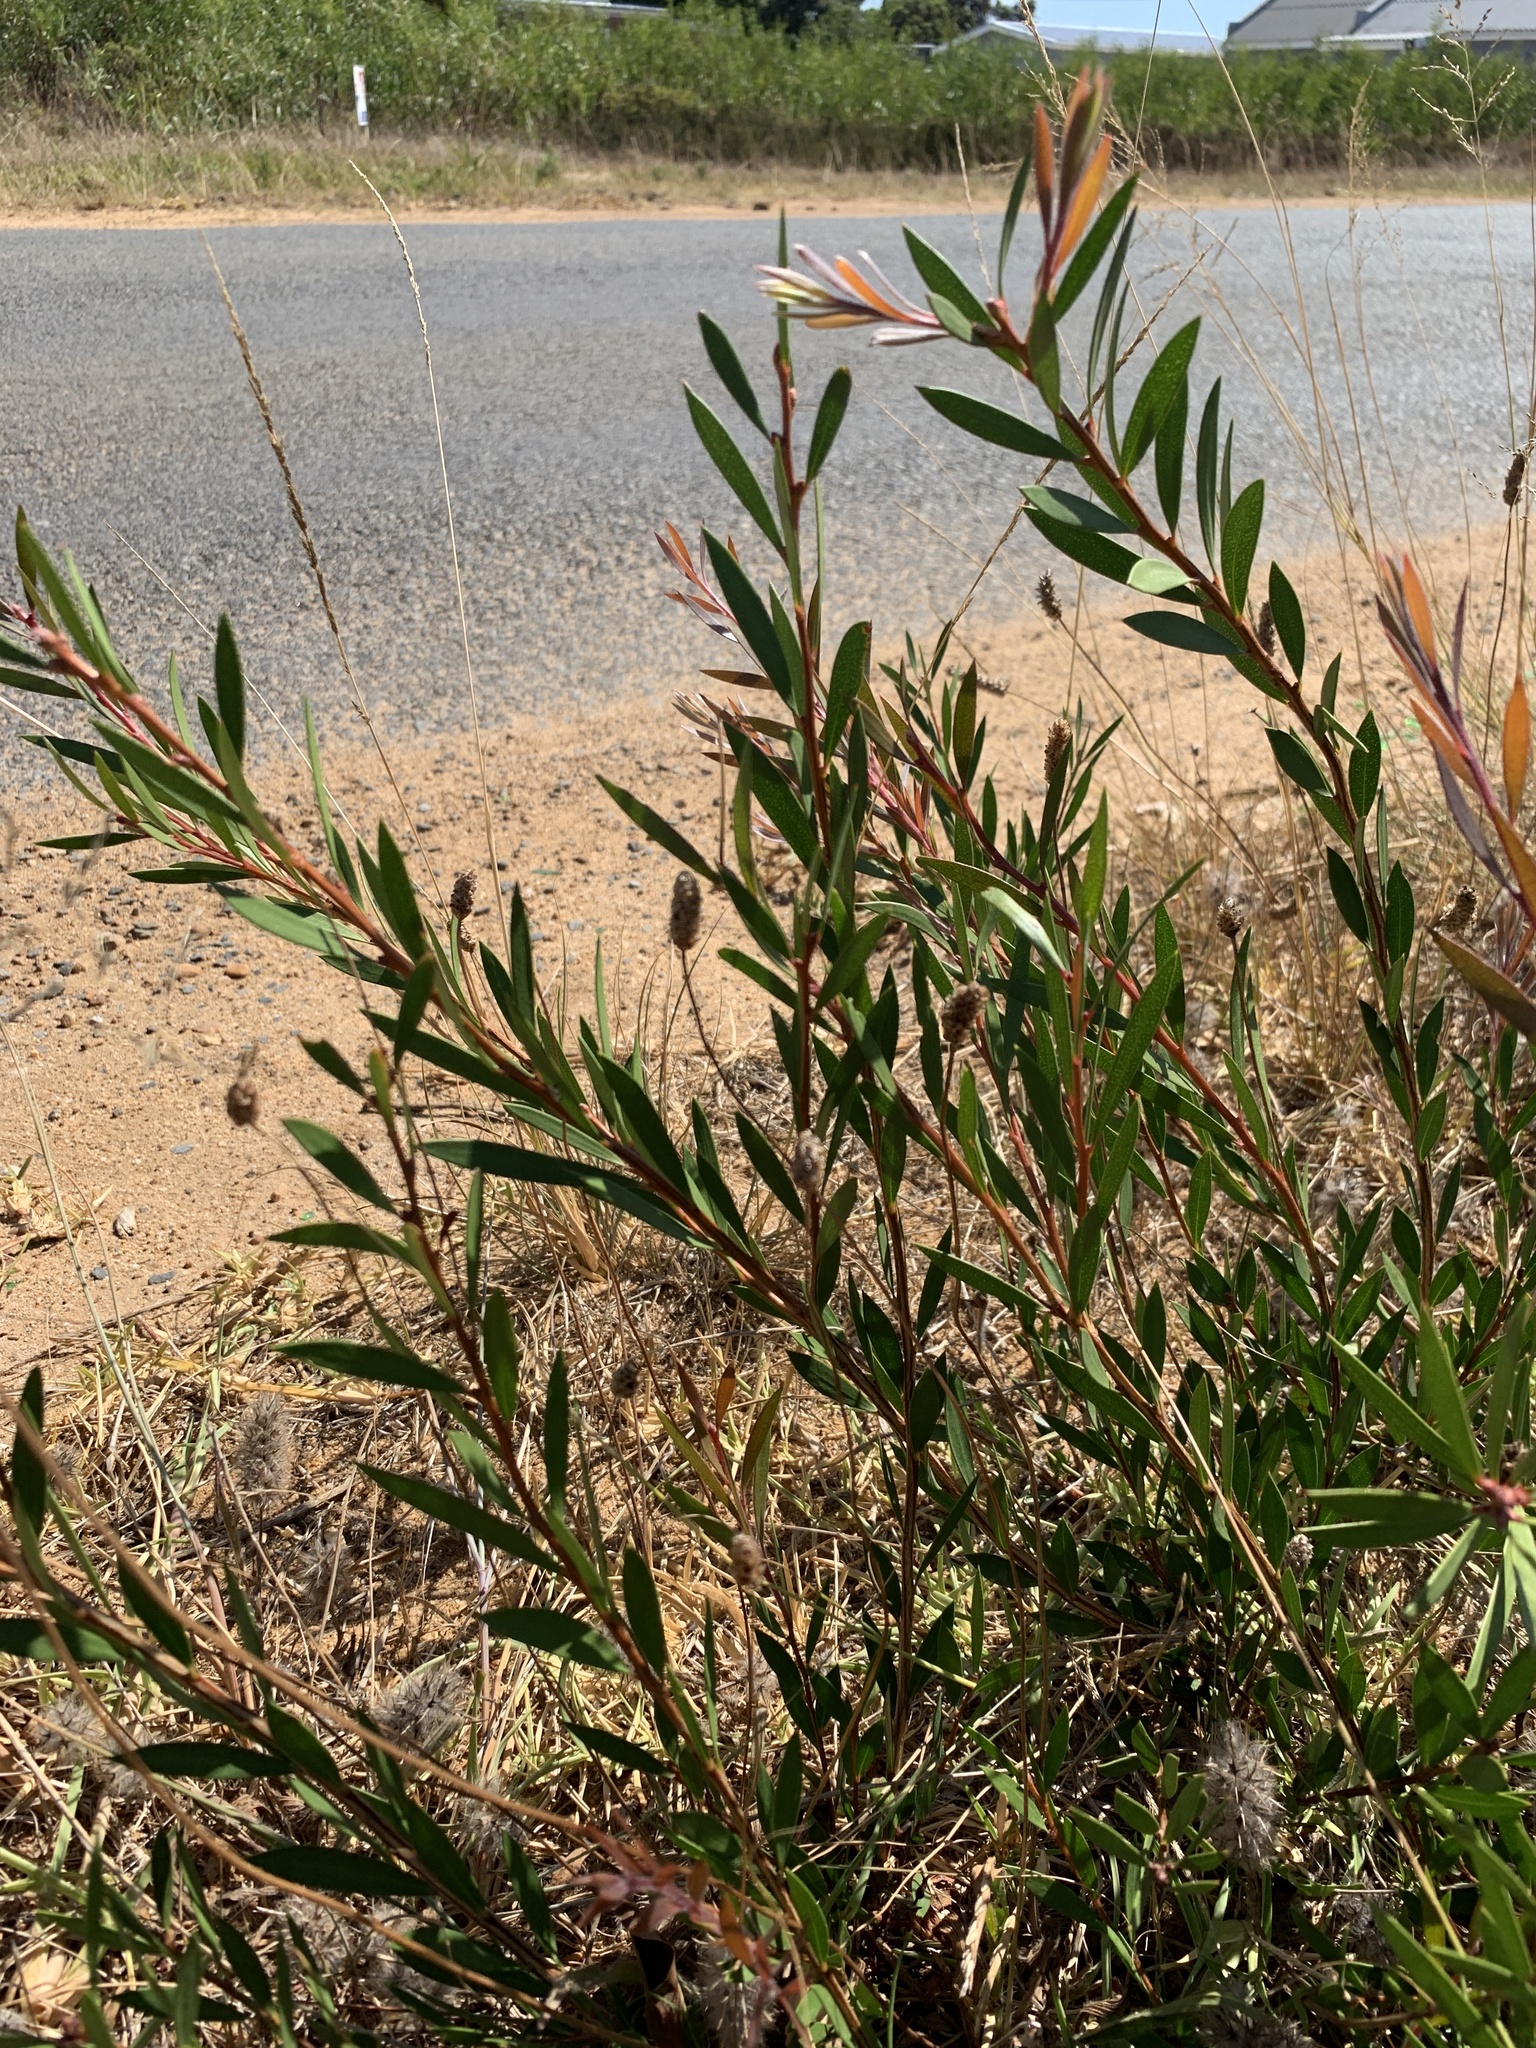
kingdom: Plantae
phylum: Tracheophyta
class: Magnoliopsida
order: Myrtales
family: Myrtaceae
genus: Callistemon
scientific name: Callistemon viminalis
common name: Drooping bottlebrush
